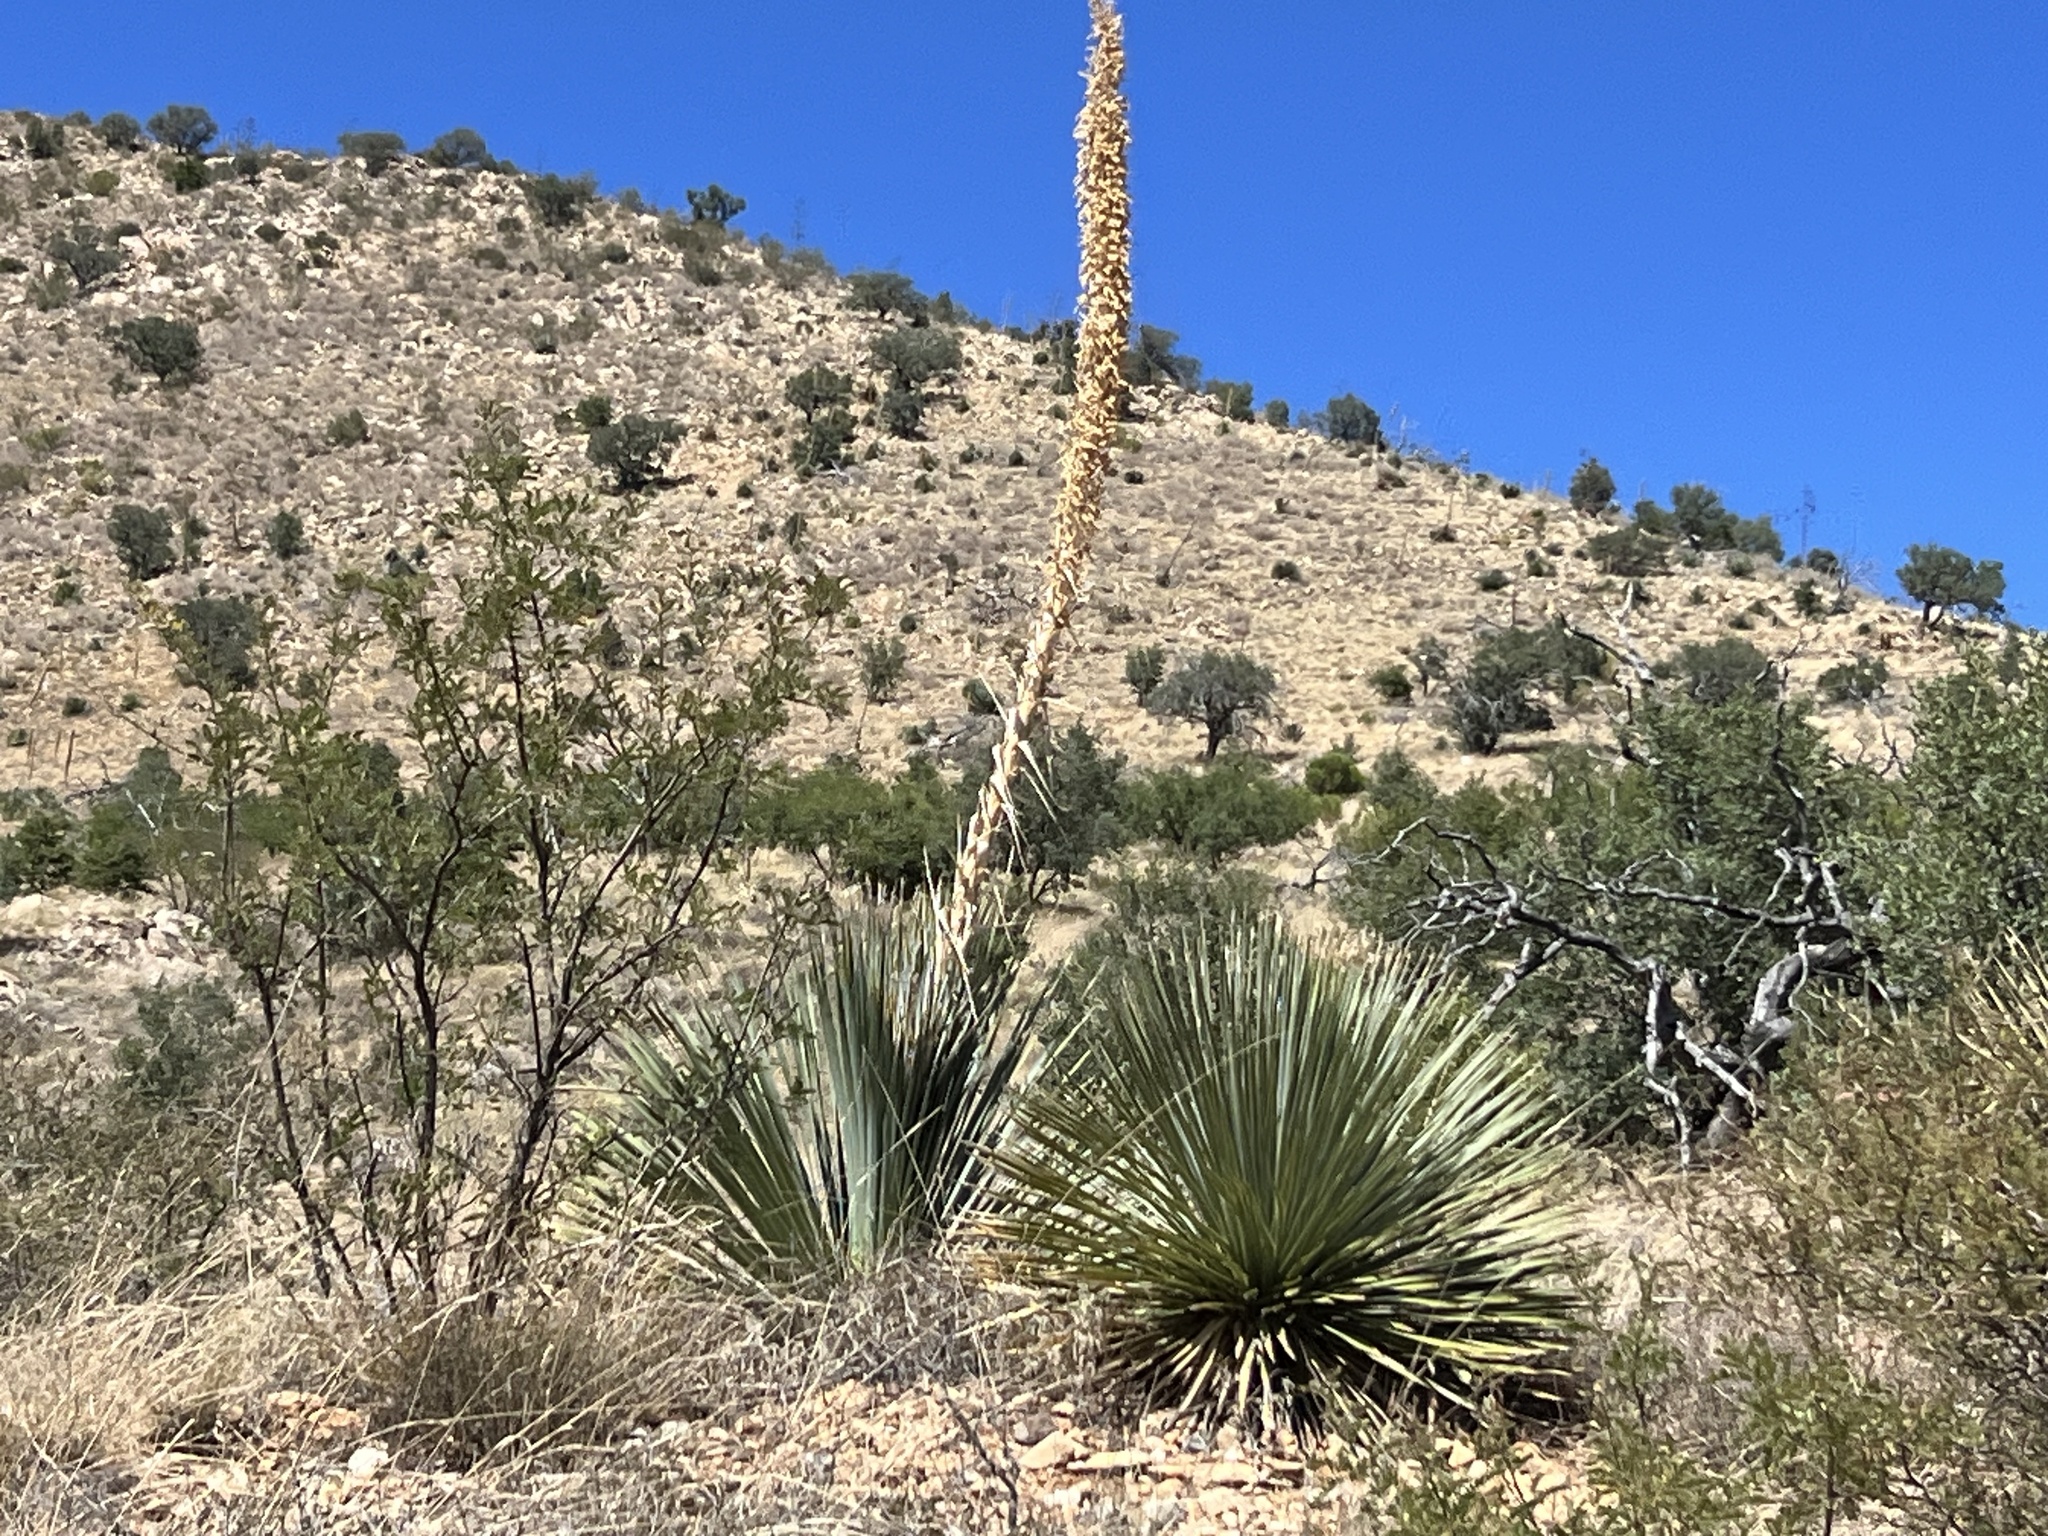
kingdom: Plantae
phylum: Tracheophyta
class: Liliopsida
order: Asparagales
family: Asparagaceae
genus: Dasylirion
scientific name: Dasylirion wheeleri
